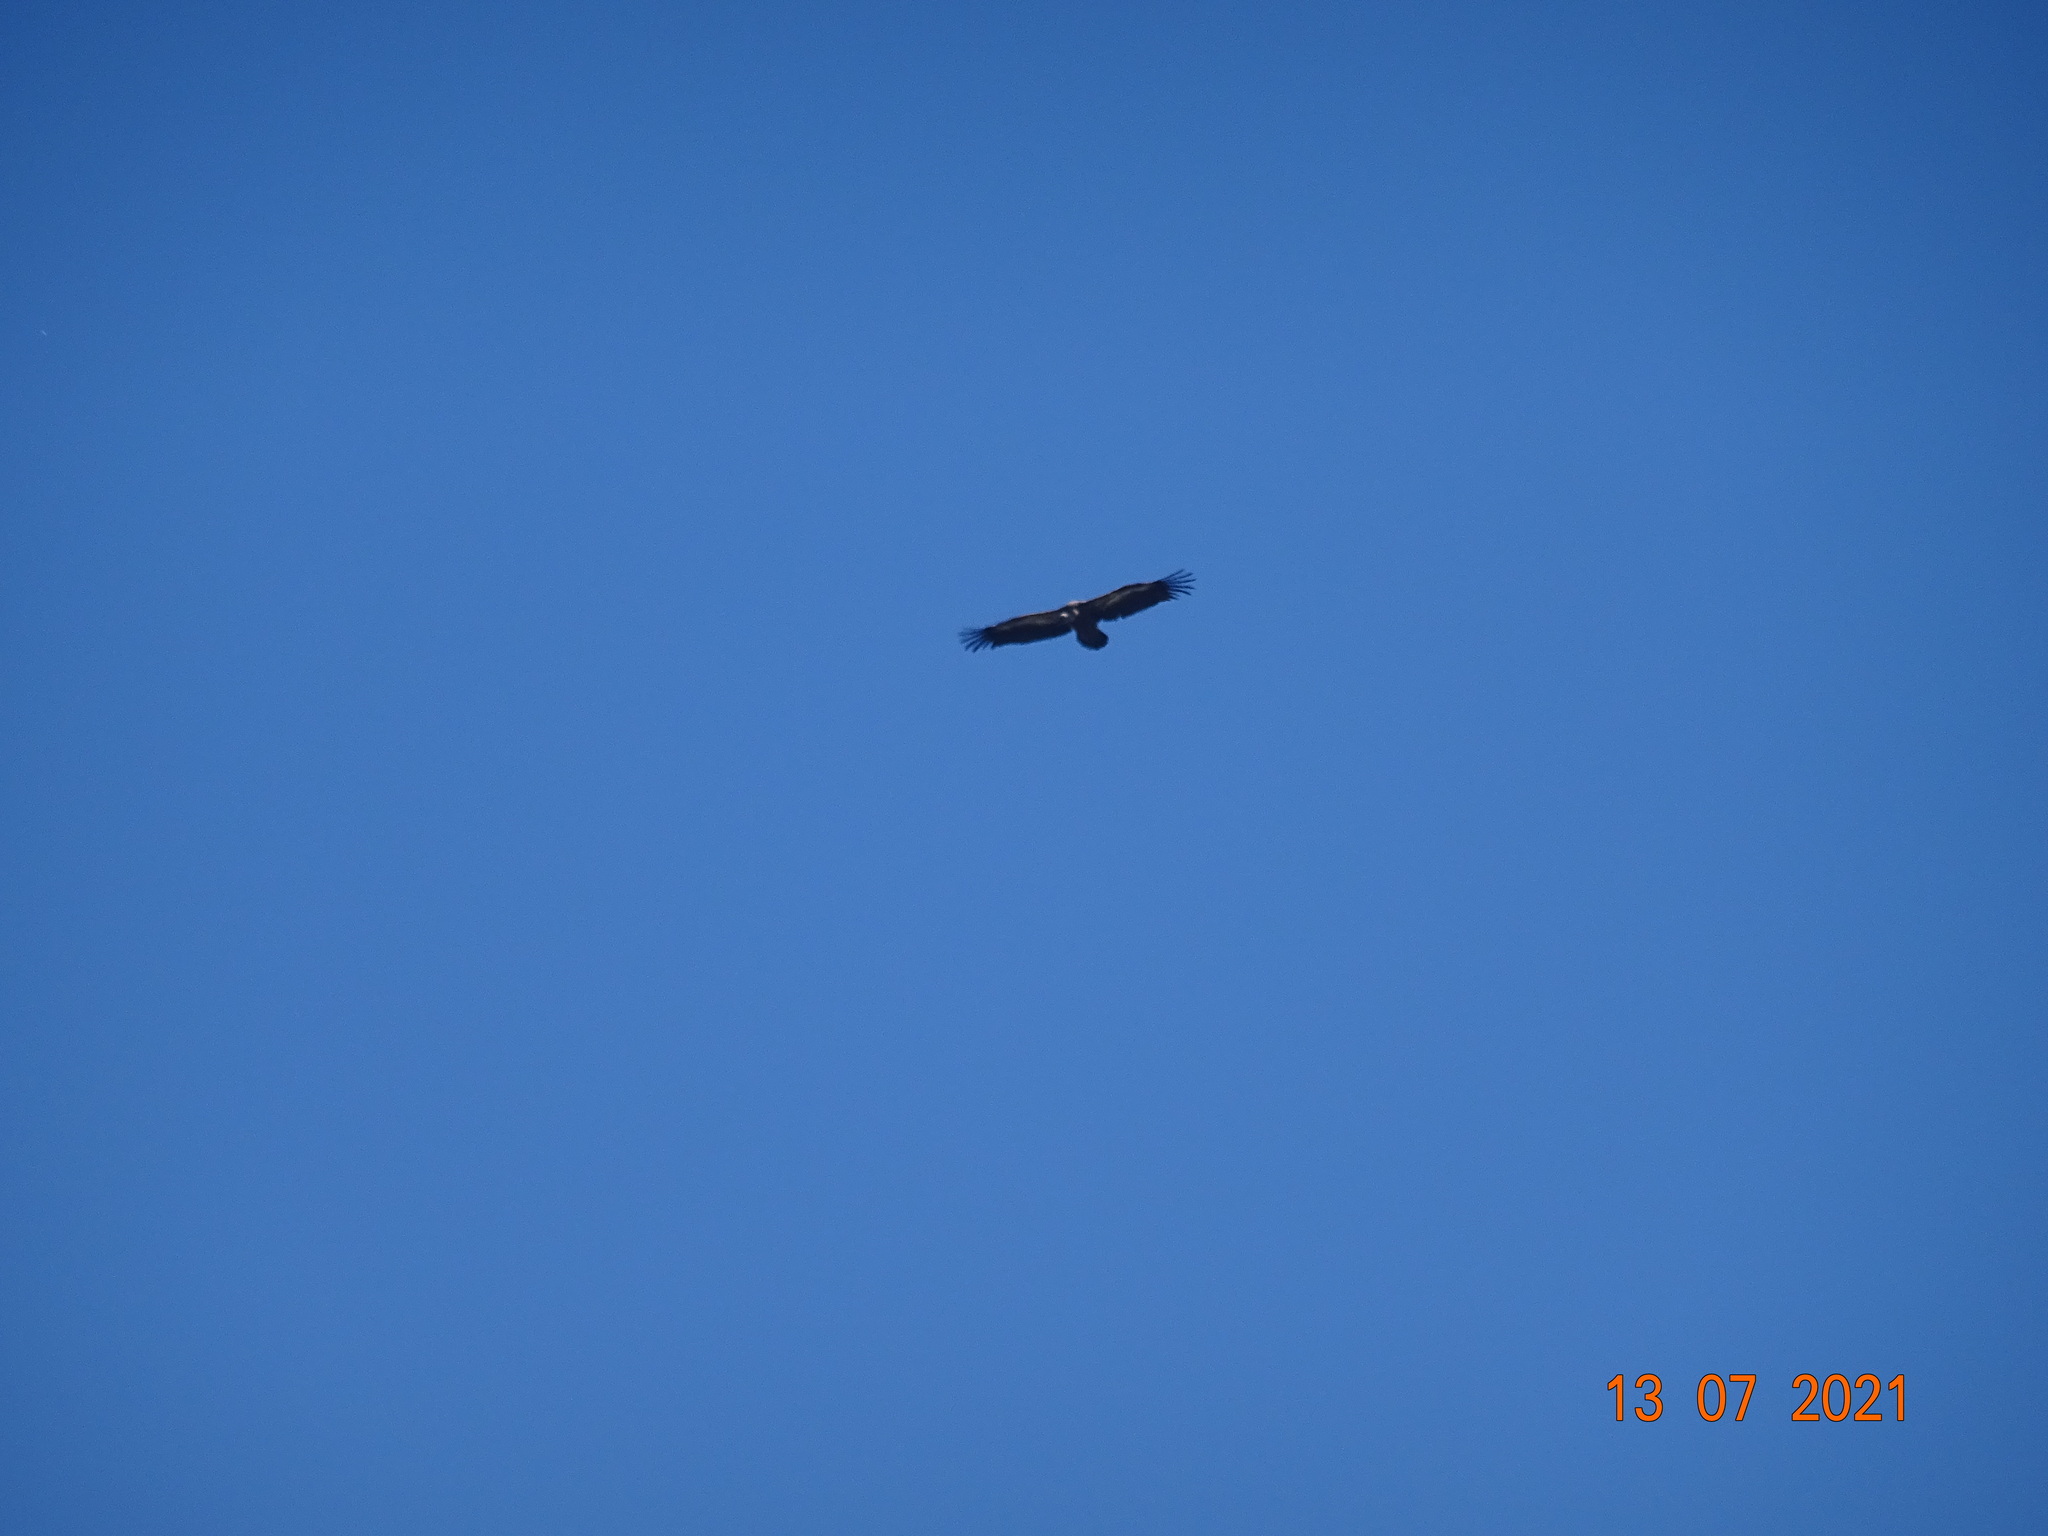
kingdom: Animalia
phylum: Chordata
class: Aves
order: Accipitriformes
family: Accipitridae
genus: Gyps
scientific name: Gyps fulvus
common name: Griffon vulture
